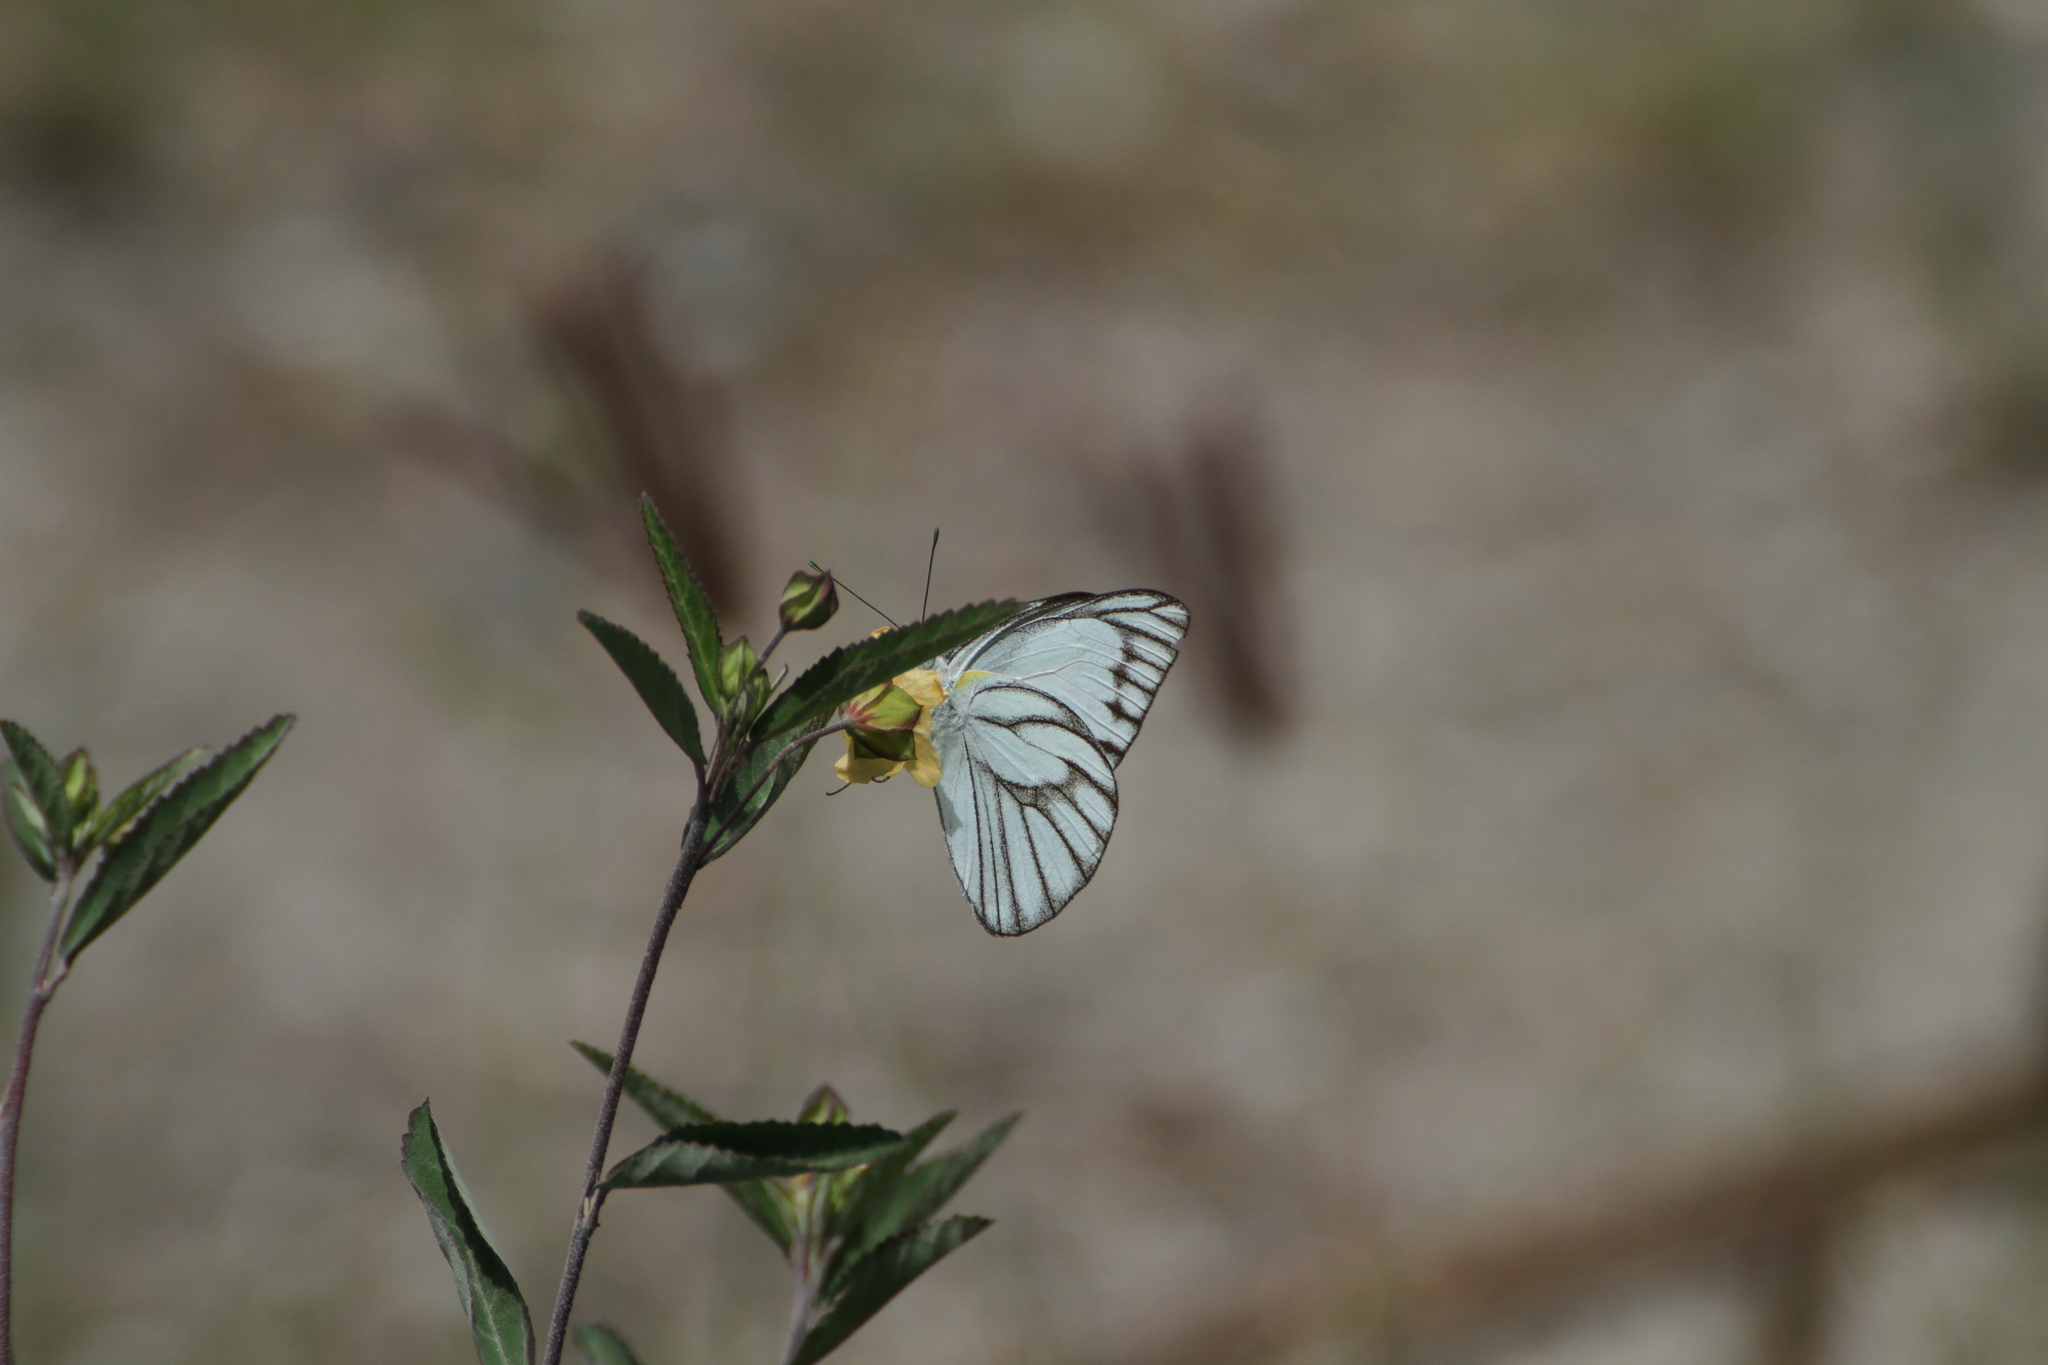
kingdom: Animalia
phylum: Arthropoda
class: Insecta
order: Lepidoptera
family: Pieridae
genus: Appias
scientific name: Appias libythea
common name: Striped albatross
